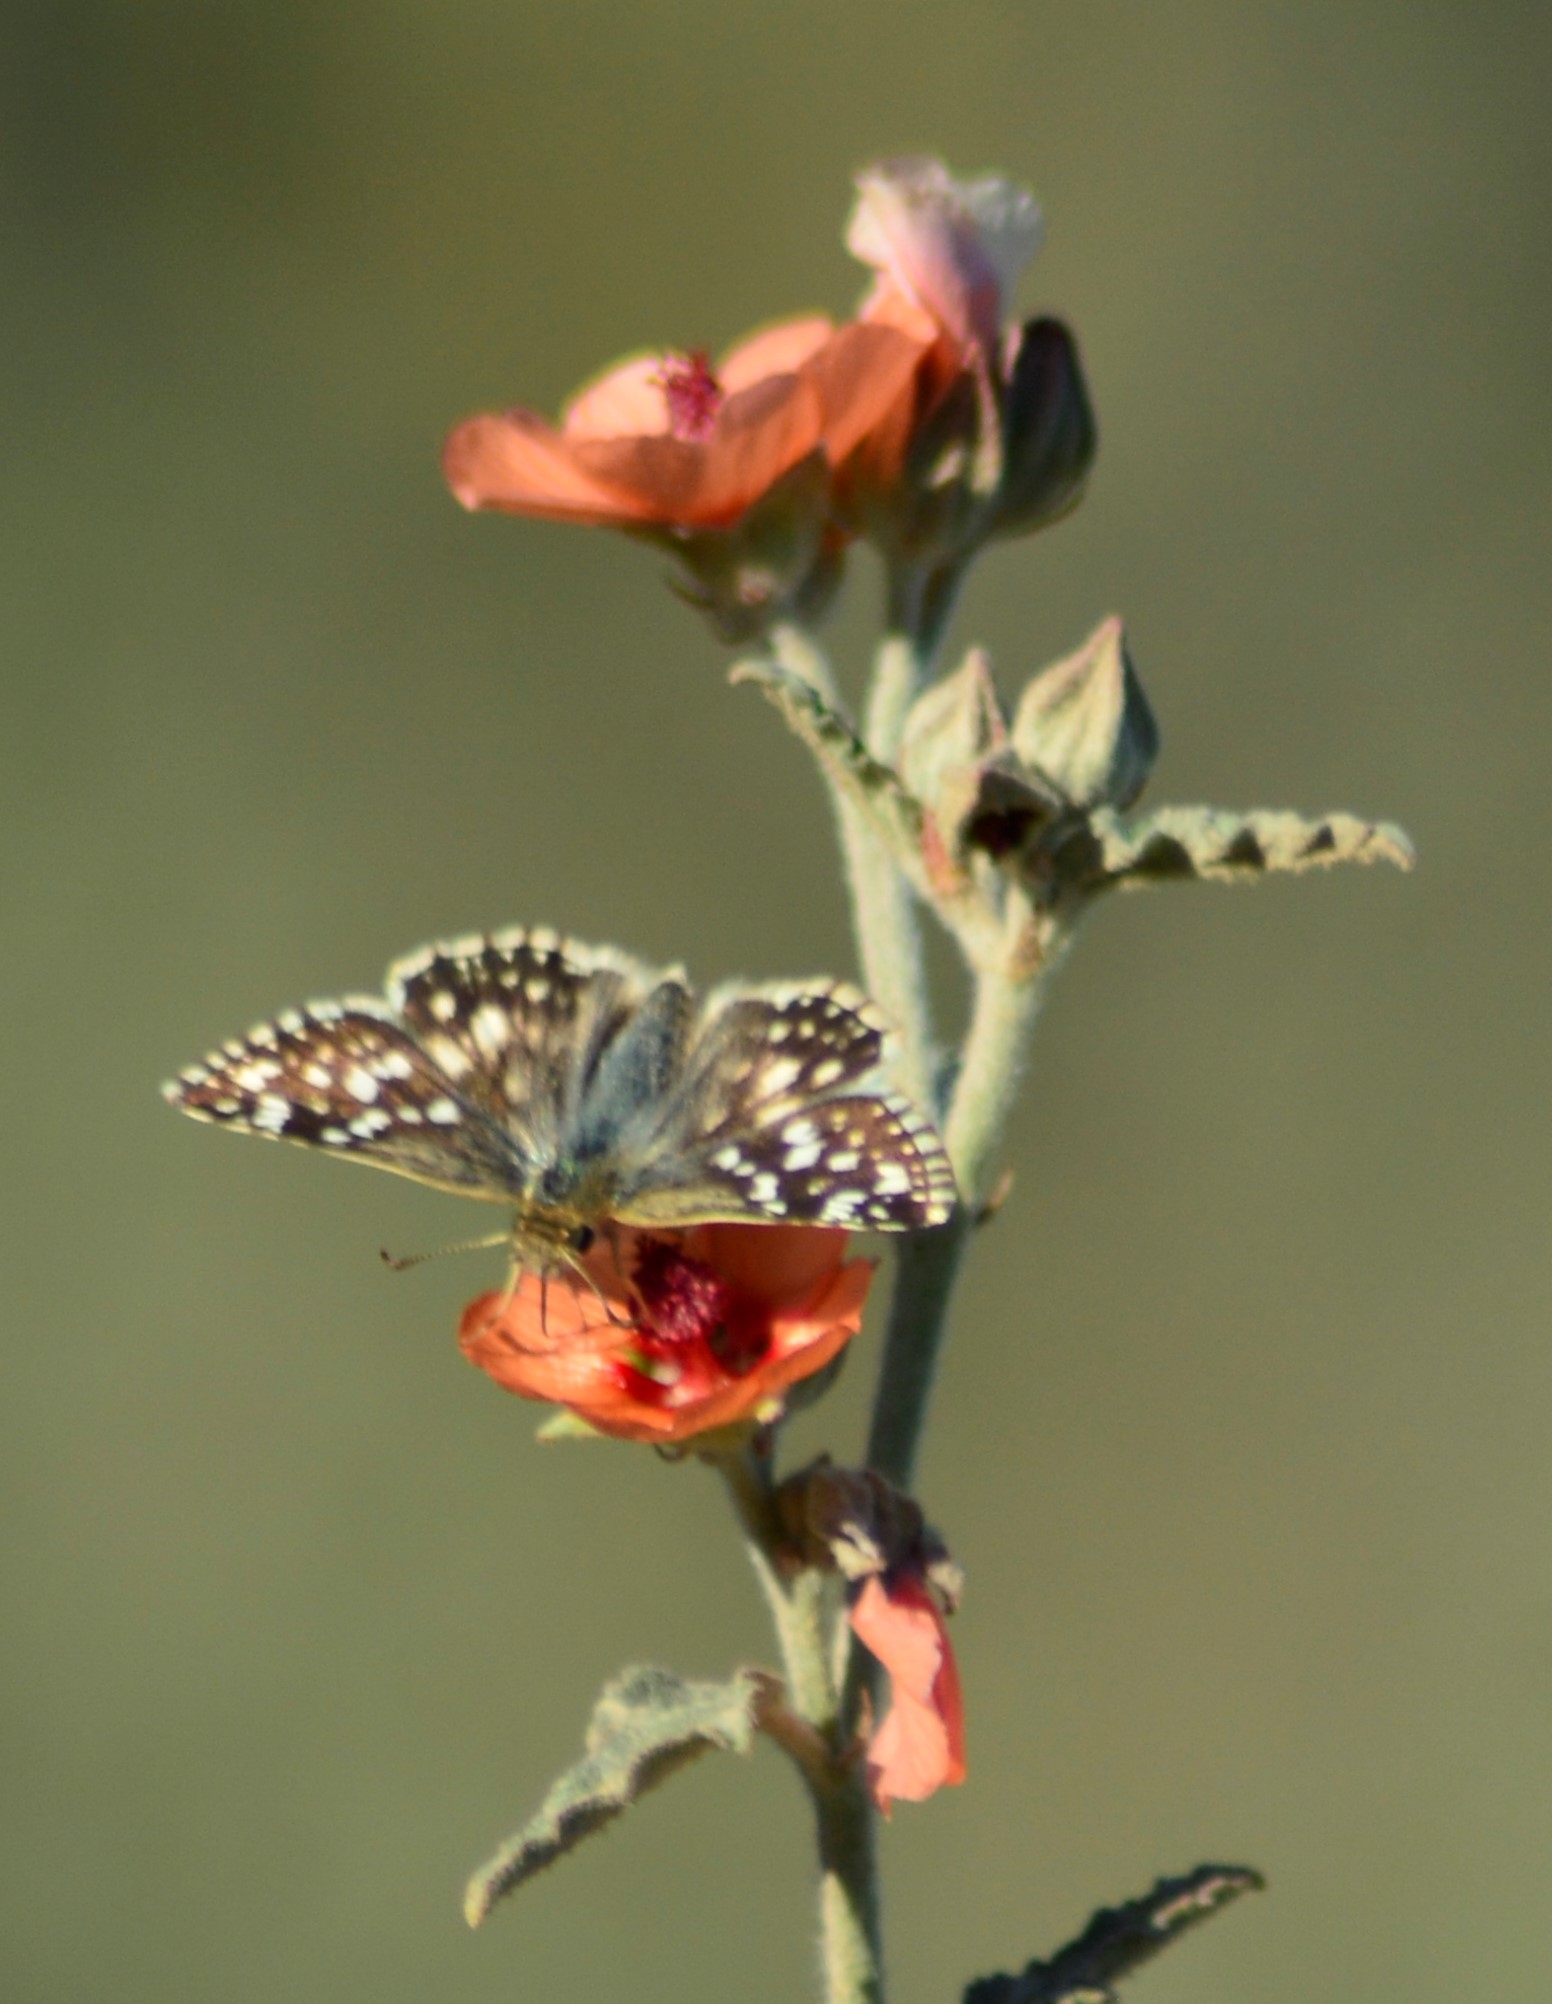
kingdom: Animalia
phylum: Arthropoda
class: Insecta
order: Lepidoptera
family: Hesperiidae
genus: Heliopetes
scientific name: Heliopetes americanus
